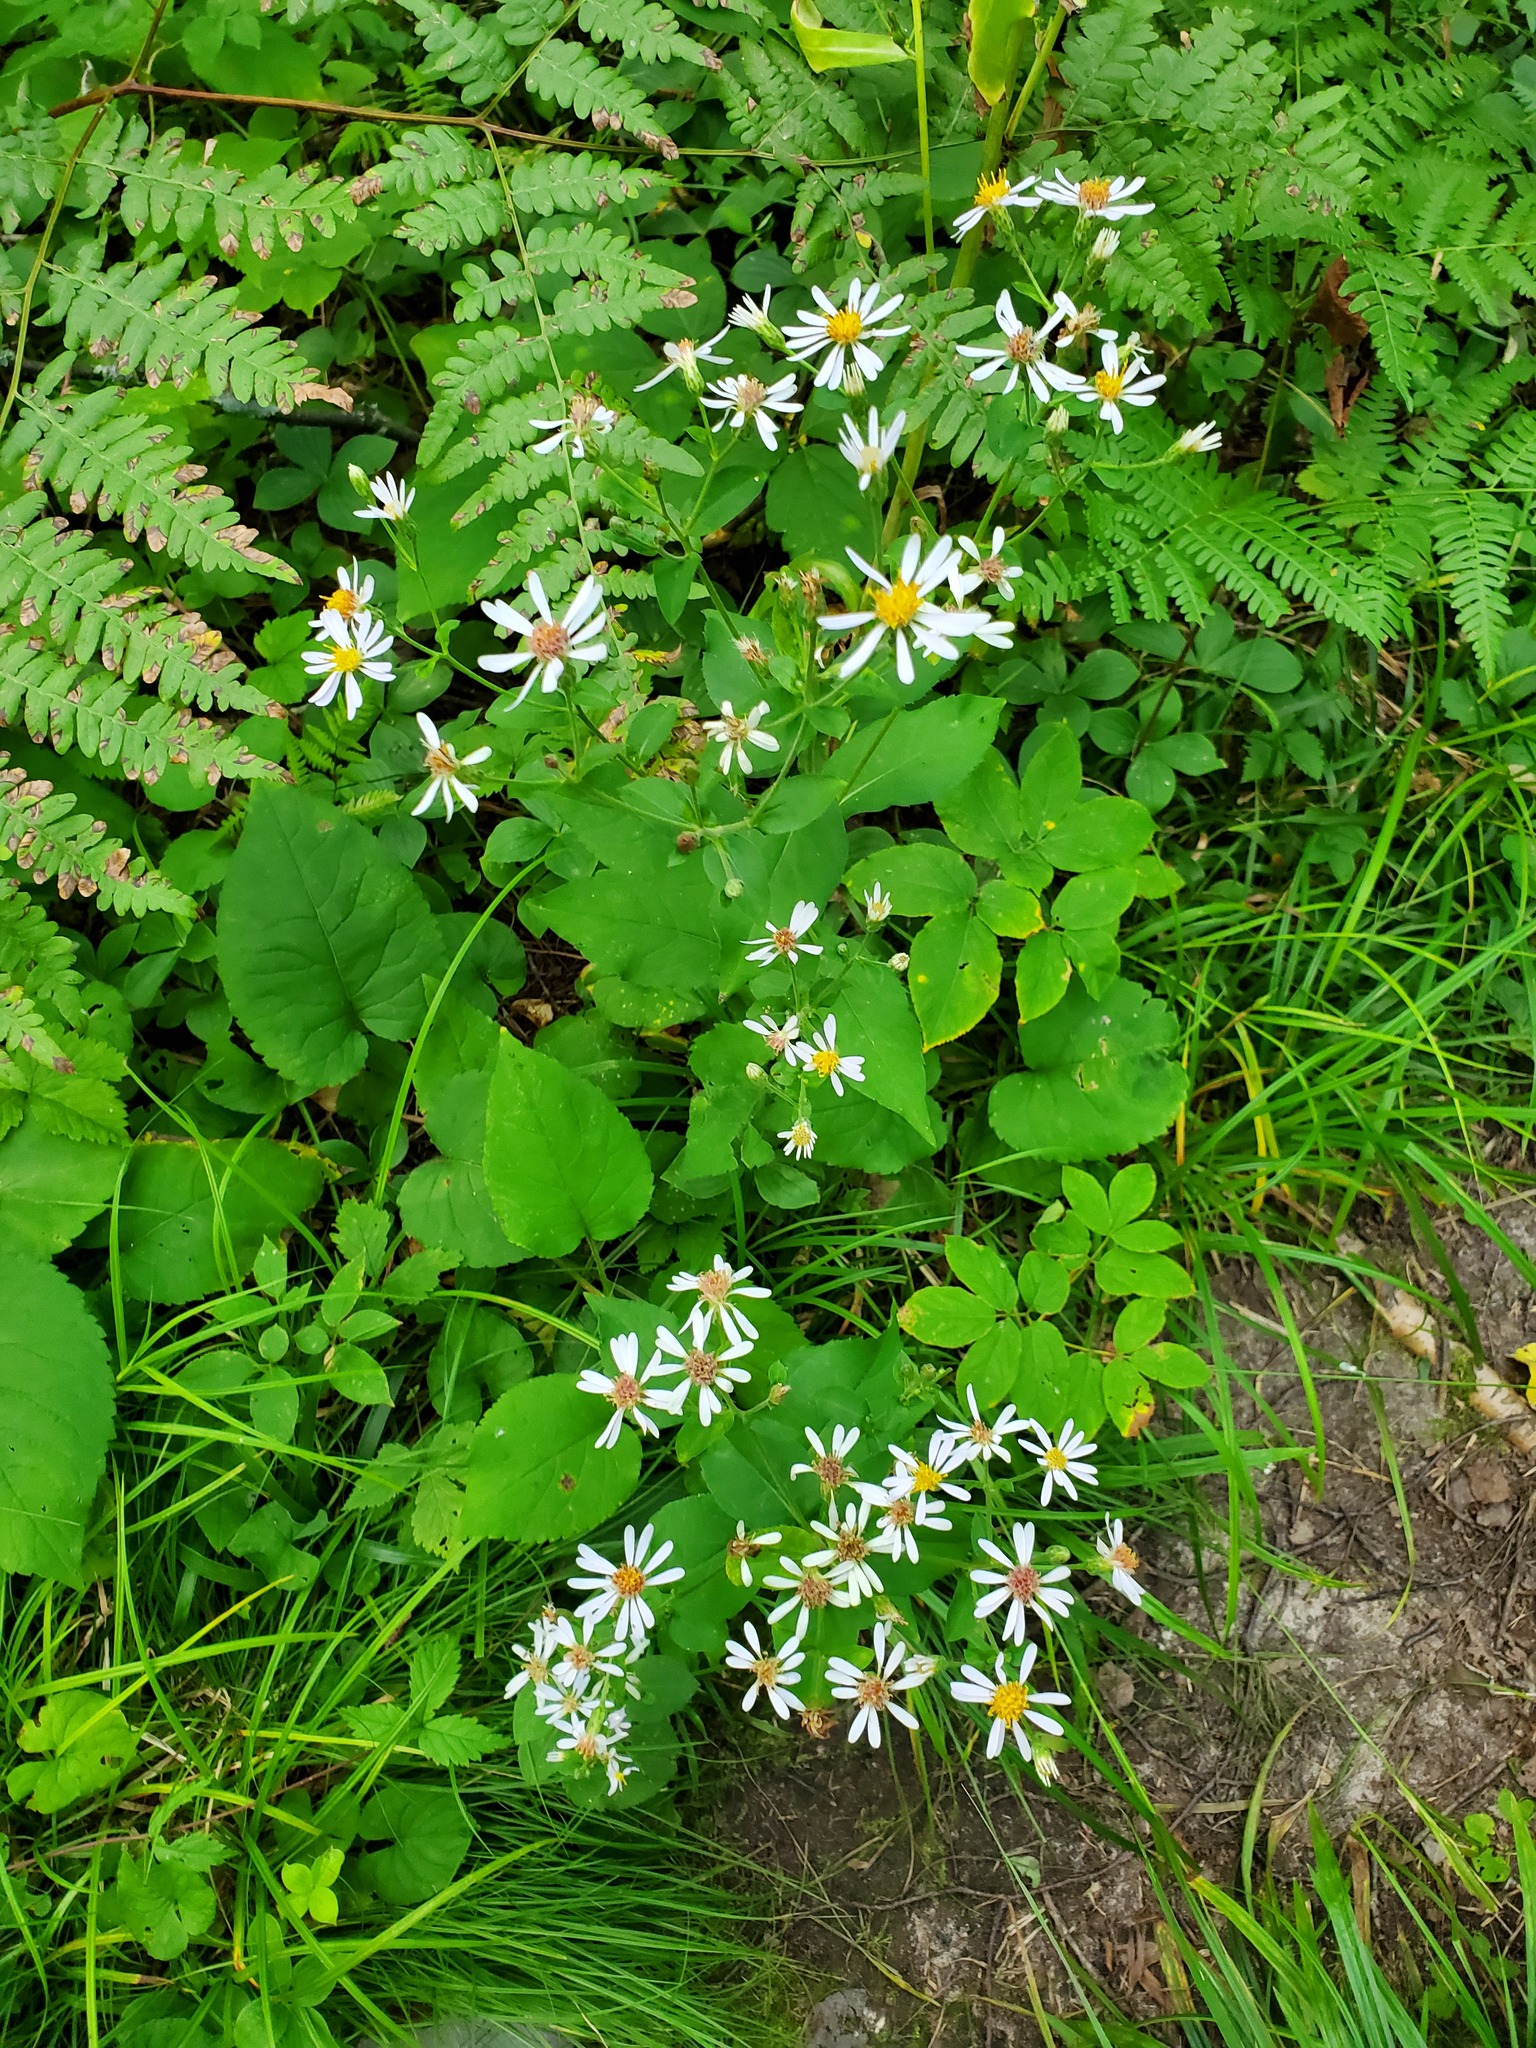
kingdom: Plantae
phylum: Tracheophyta
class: Magnoliopsida
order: Asterales
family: Asteraceae
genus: Eurybia
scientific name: Eurybia macrophylla
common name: Big-leaved aster
